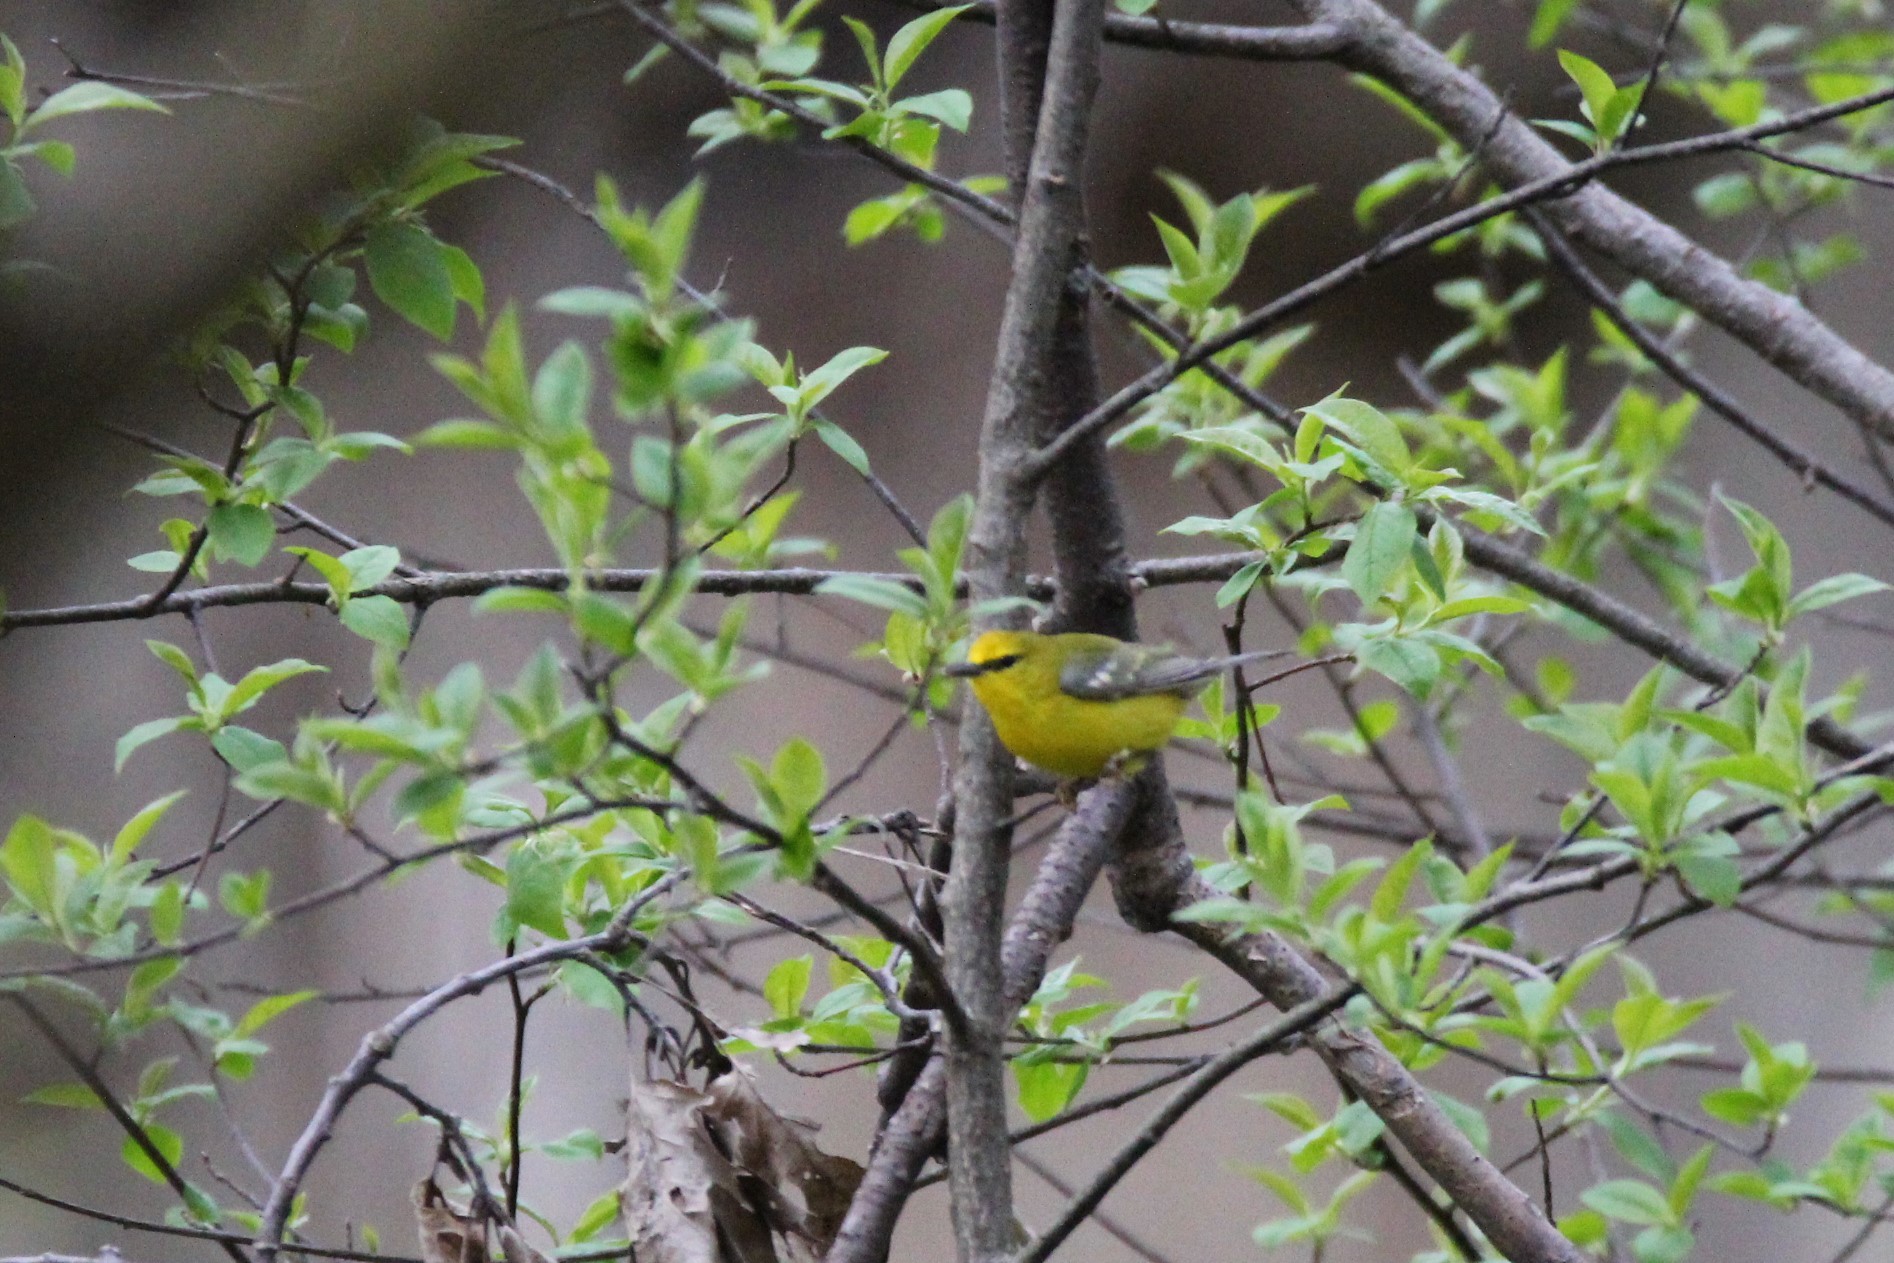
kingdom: Animalia
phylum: Chordata
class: Aves
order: Passeriformes
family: Parulidae
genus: Vermivora
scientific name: Vermivora cyanoptera
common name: Blue-winged warbler
